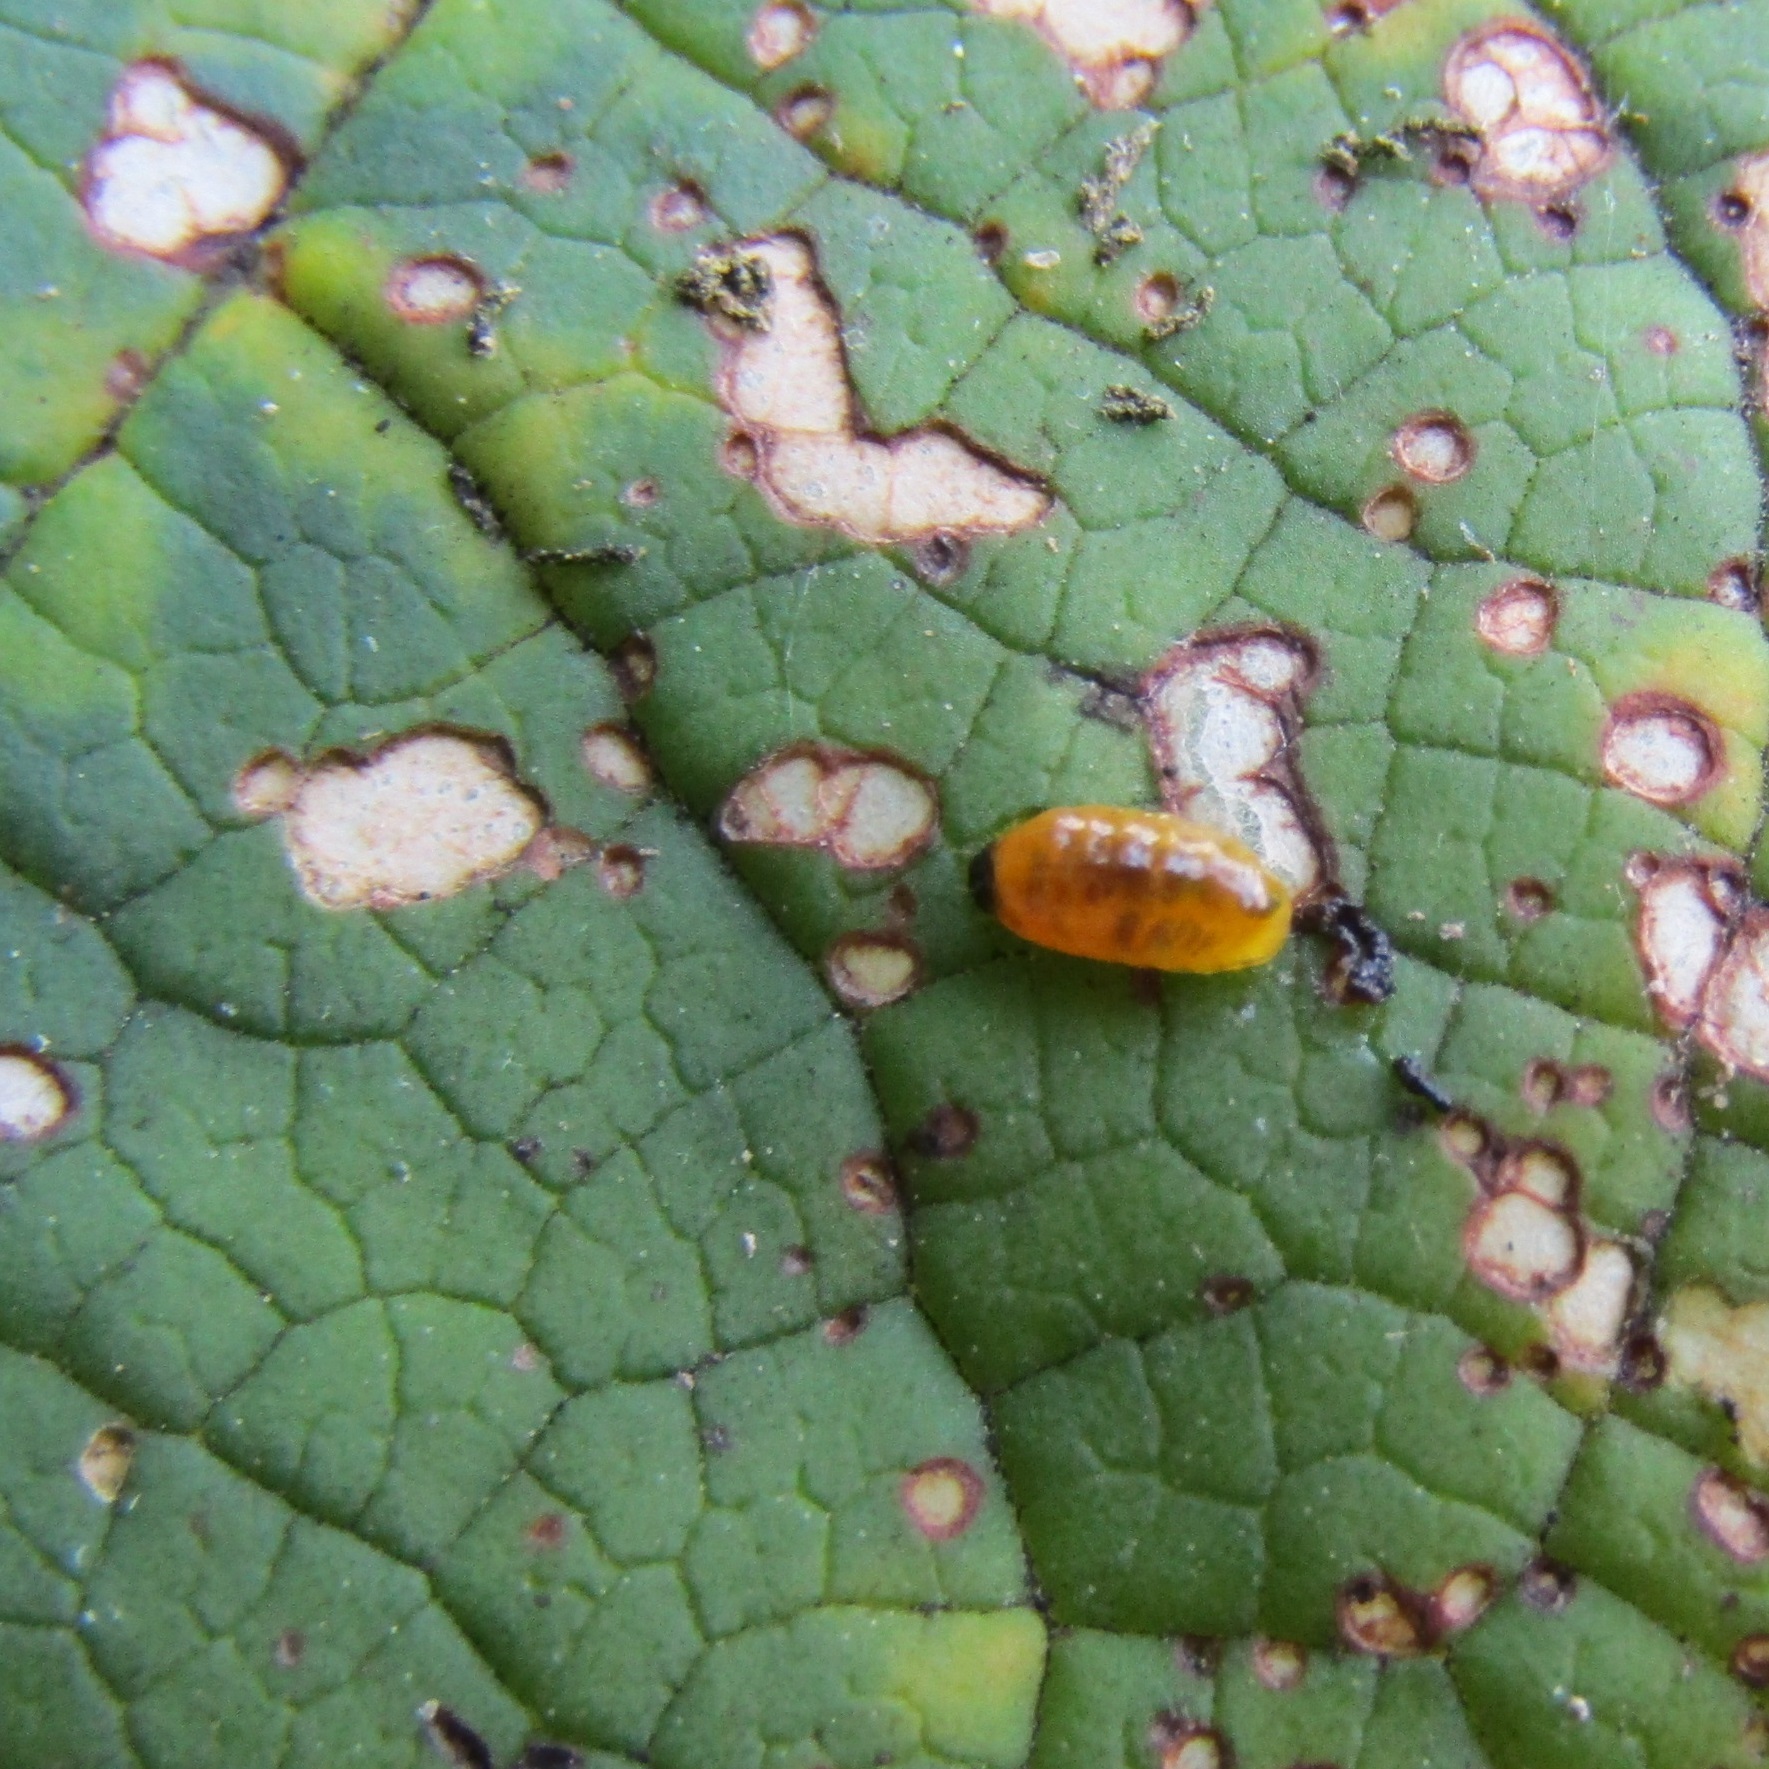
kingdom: Animalia
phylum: Arthropoda
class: Insecta
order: Coleoptera
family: Curculionidae
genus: Cleopus
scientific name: Cleopus japonicus
